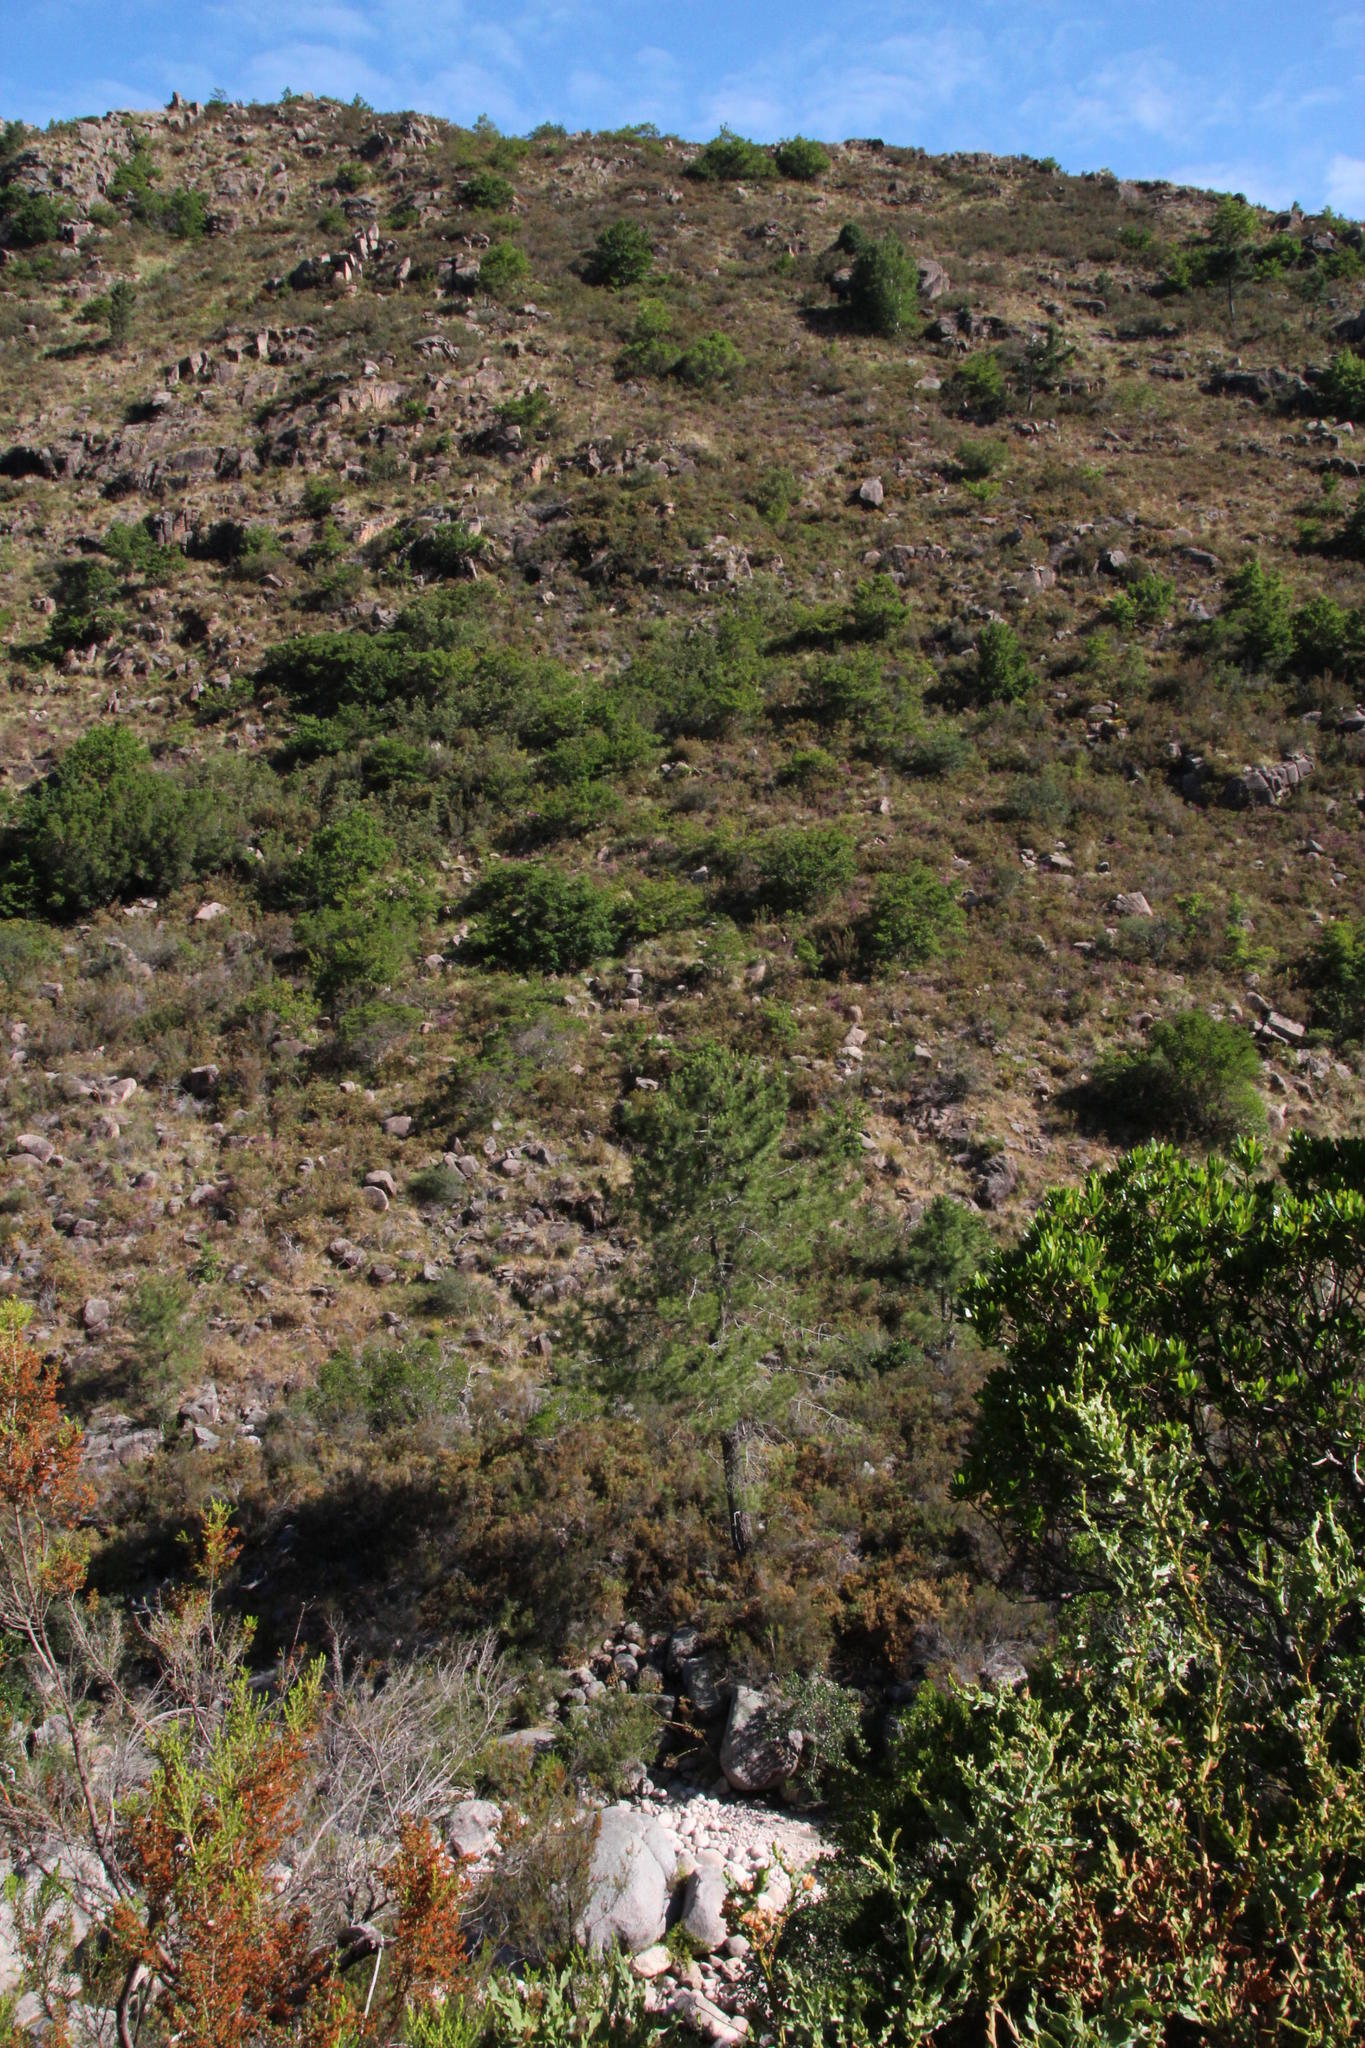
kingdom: Plantae
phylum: Tracheophyta
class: Pinopsida
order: Pinales
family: Pinaceae
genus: Pinus
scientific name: Pinus pinaster
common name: Maritime pine
